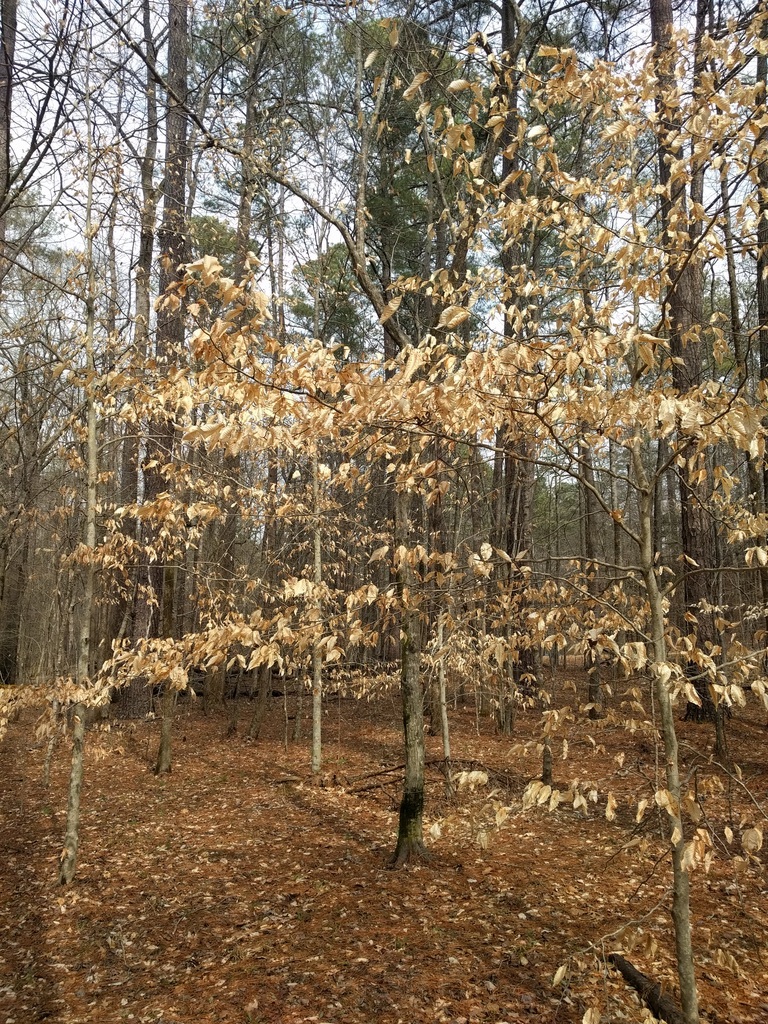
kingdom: Plantae
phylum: Tracheophyta
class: Magnoliopsida
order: Fagales
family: Fagaceae
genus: Fagus
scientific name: Fagus grandifolia
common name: American beech
